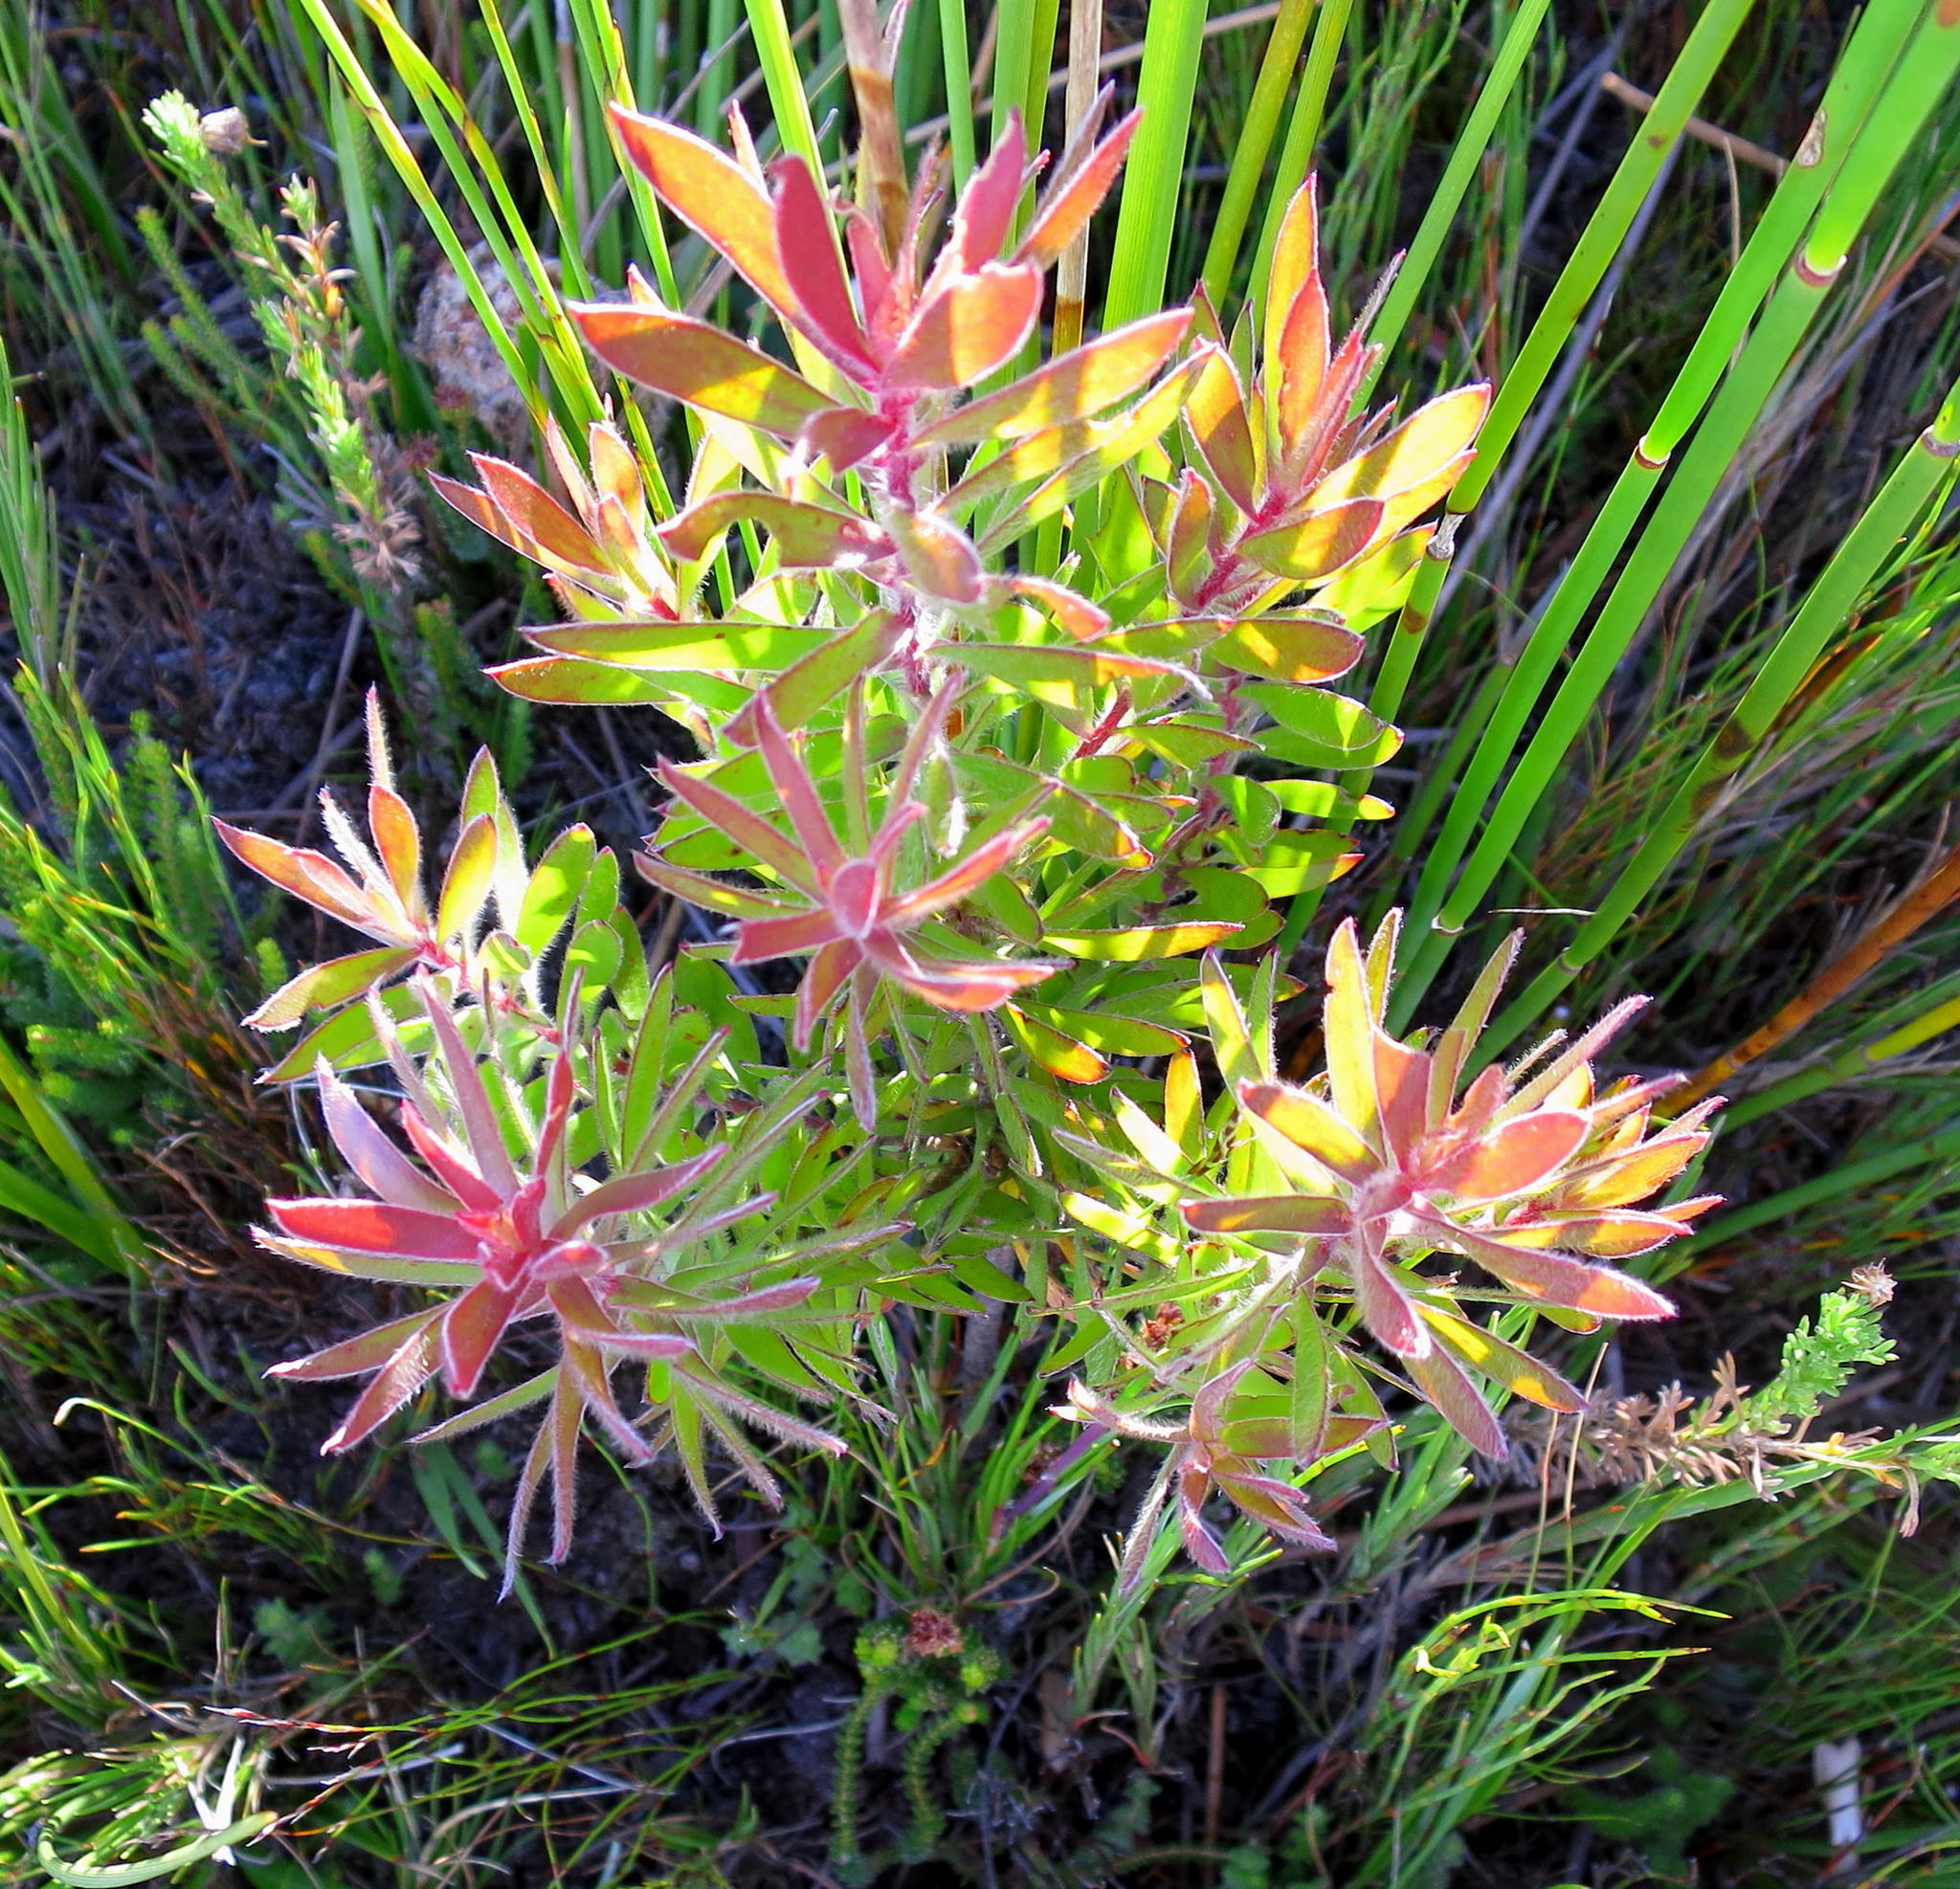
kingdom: Plantae
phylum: Tracheophyta
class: Magnoliopsida
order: Proteales
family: Proteaceae
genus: Leucadendron
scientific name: Leucadendron conicum
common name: Garden route conebush
